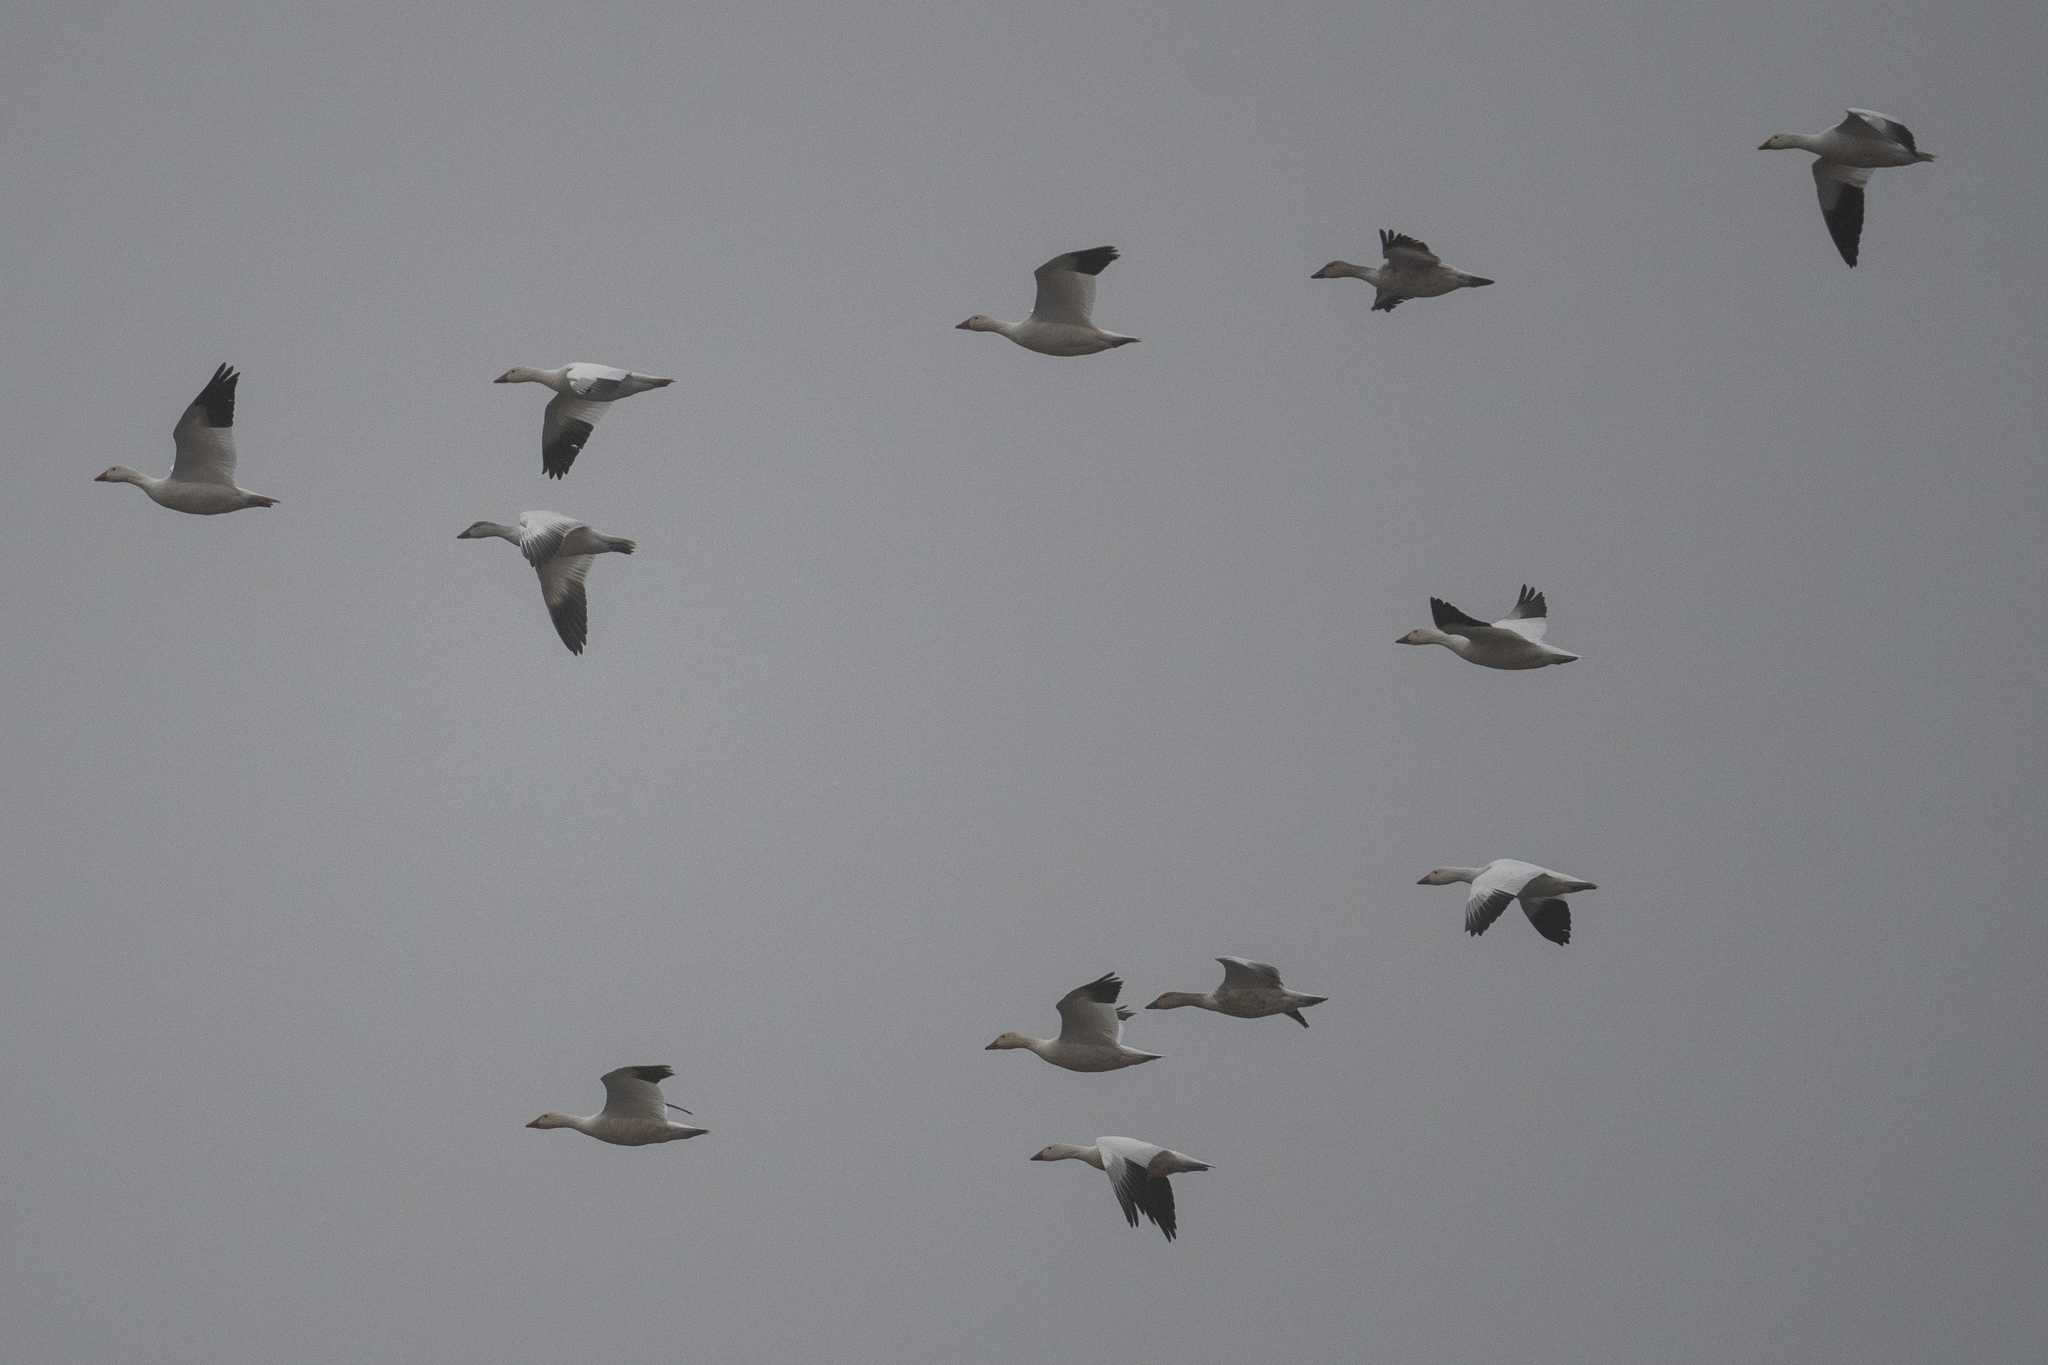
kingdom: Animalia
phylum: Chordata
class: Aves
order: Anseriformes
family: Anatidae
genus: Anser
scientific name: Anser caerulescens
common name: Snow goose
